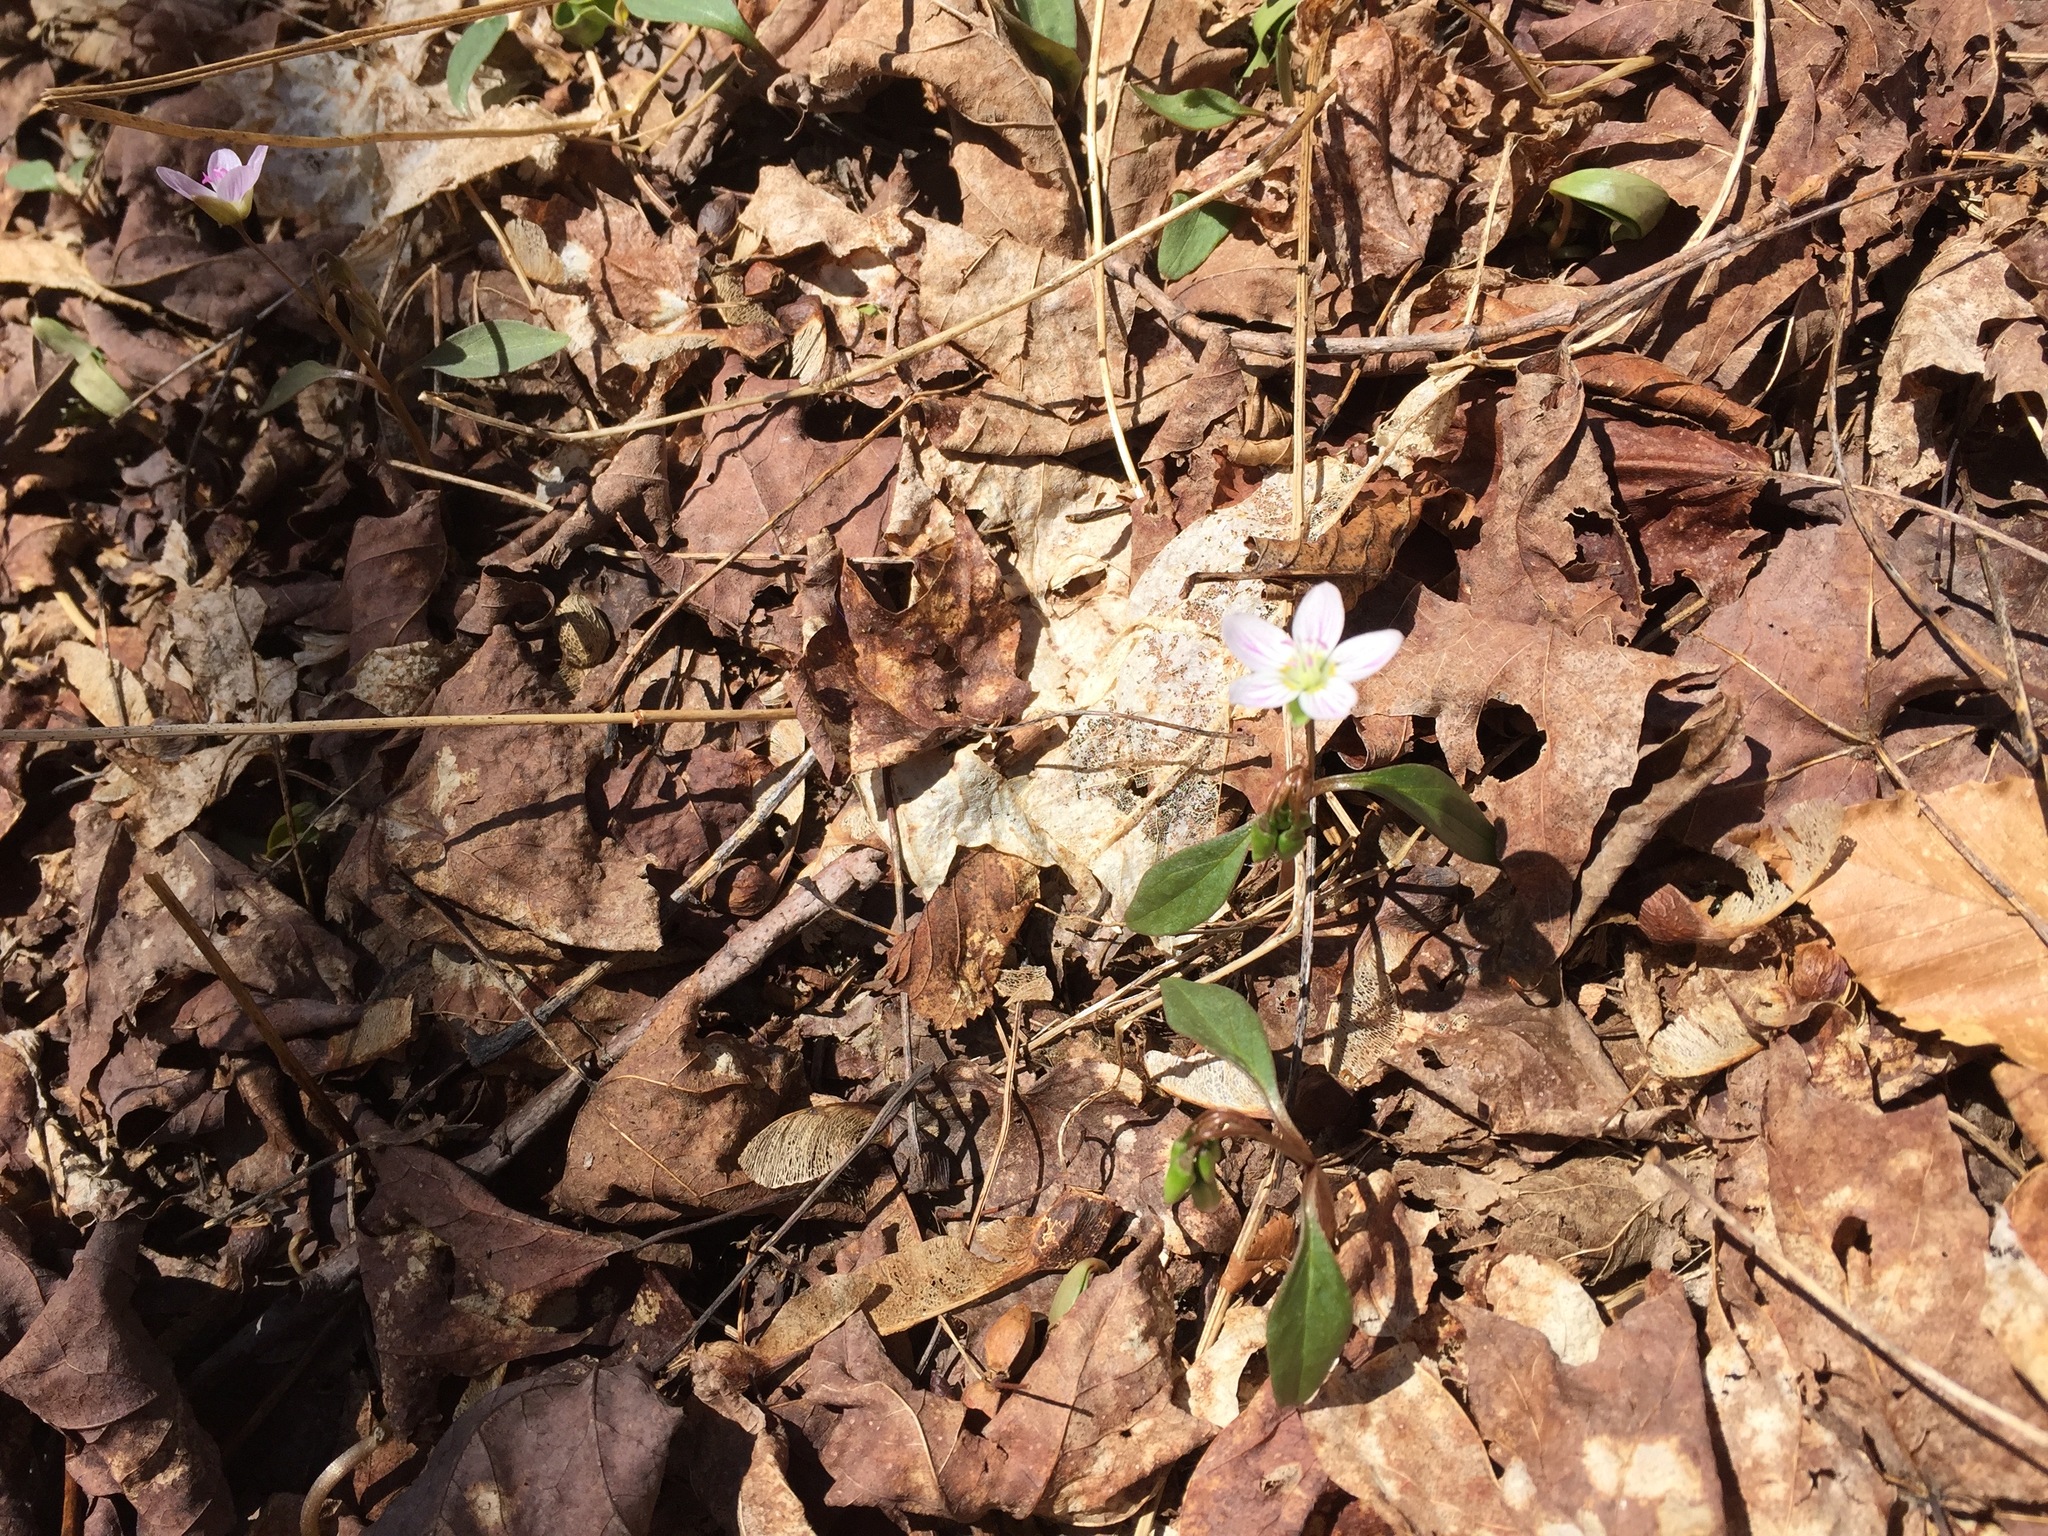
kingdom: Plantae
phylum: Tracheophyta
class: Magnoliopsida
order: Caryophyllales
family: Montiaceae
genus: Claytonia
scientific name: Claytonia caroliniana
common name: Carolina spring beauty
